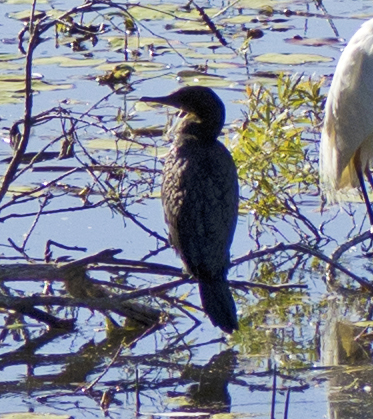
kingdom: Animalia
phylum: Chordata
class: Aves
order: Suliformes
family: Phalacrocoracidae
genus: Phalacrocorax
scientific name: Phalacrocorax sulcirostris
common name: Little black cormorant
